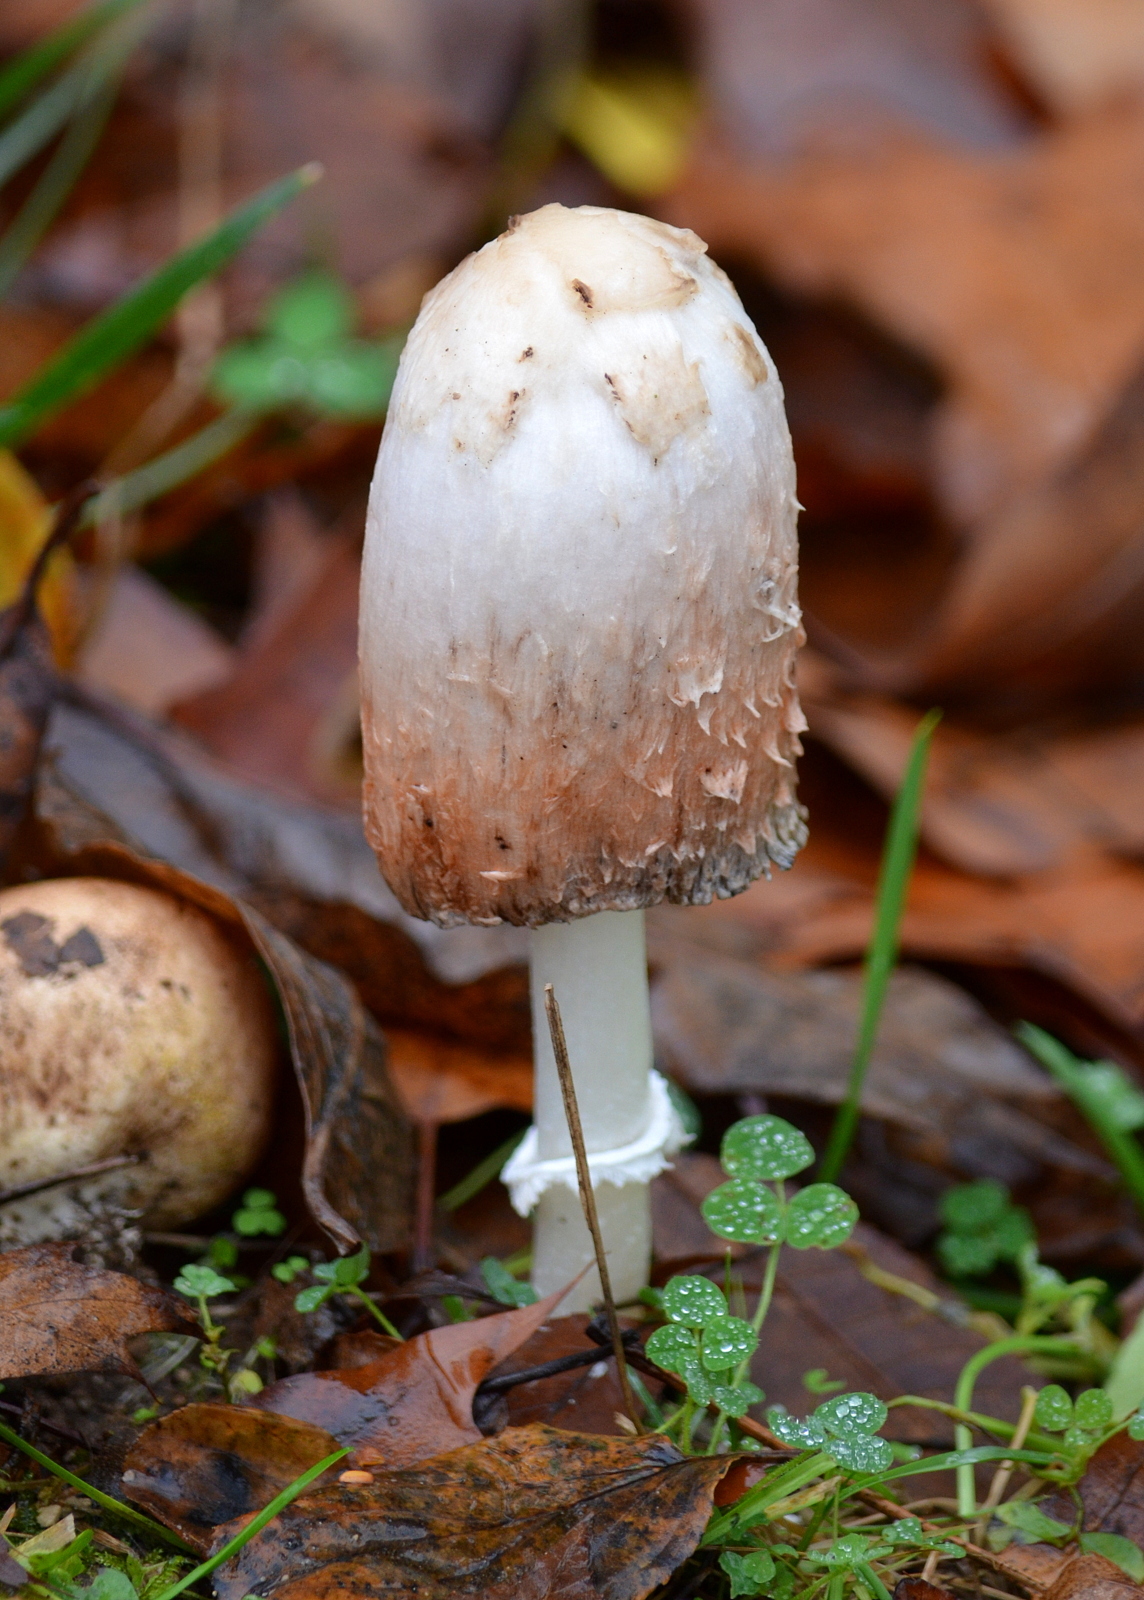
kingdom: Fungi
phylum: Basidiomycota
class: Agaricomycetes
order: Agaricales
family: Agaricaceae
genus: Coprinus
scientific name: Coprinus comatus
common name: Lawyer's wig
